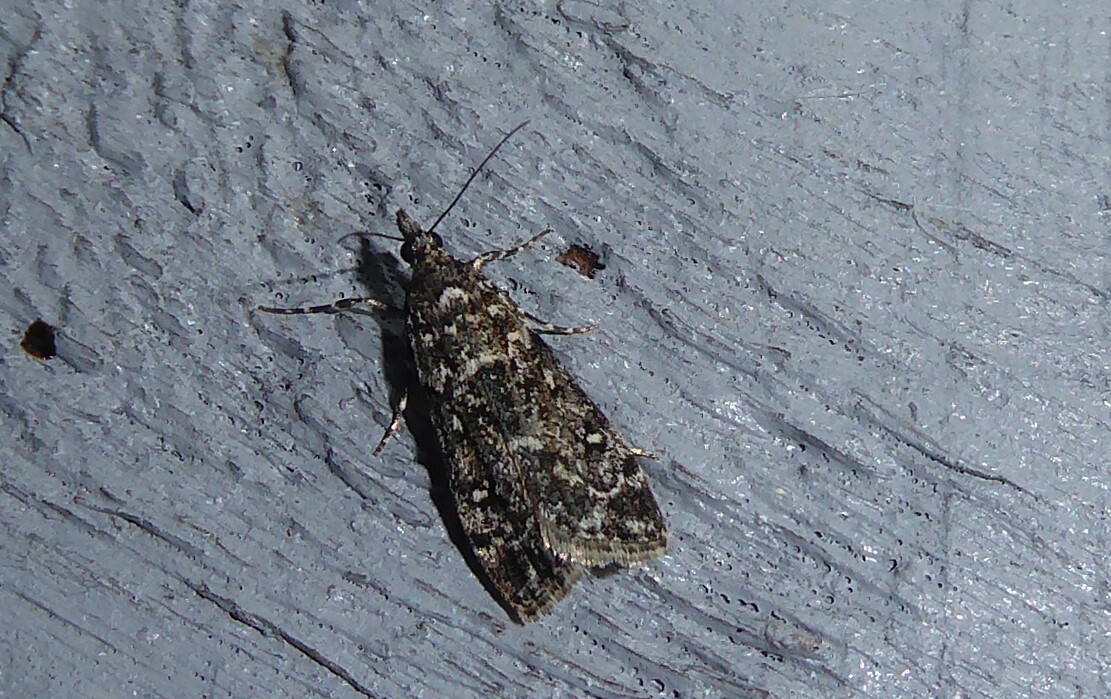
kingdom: Animalia
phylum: Arthropoda
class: Insecta
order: Lepidoptera
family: Crambidae
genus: Eudonia
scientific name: Eudonia philerga
